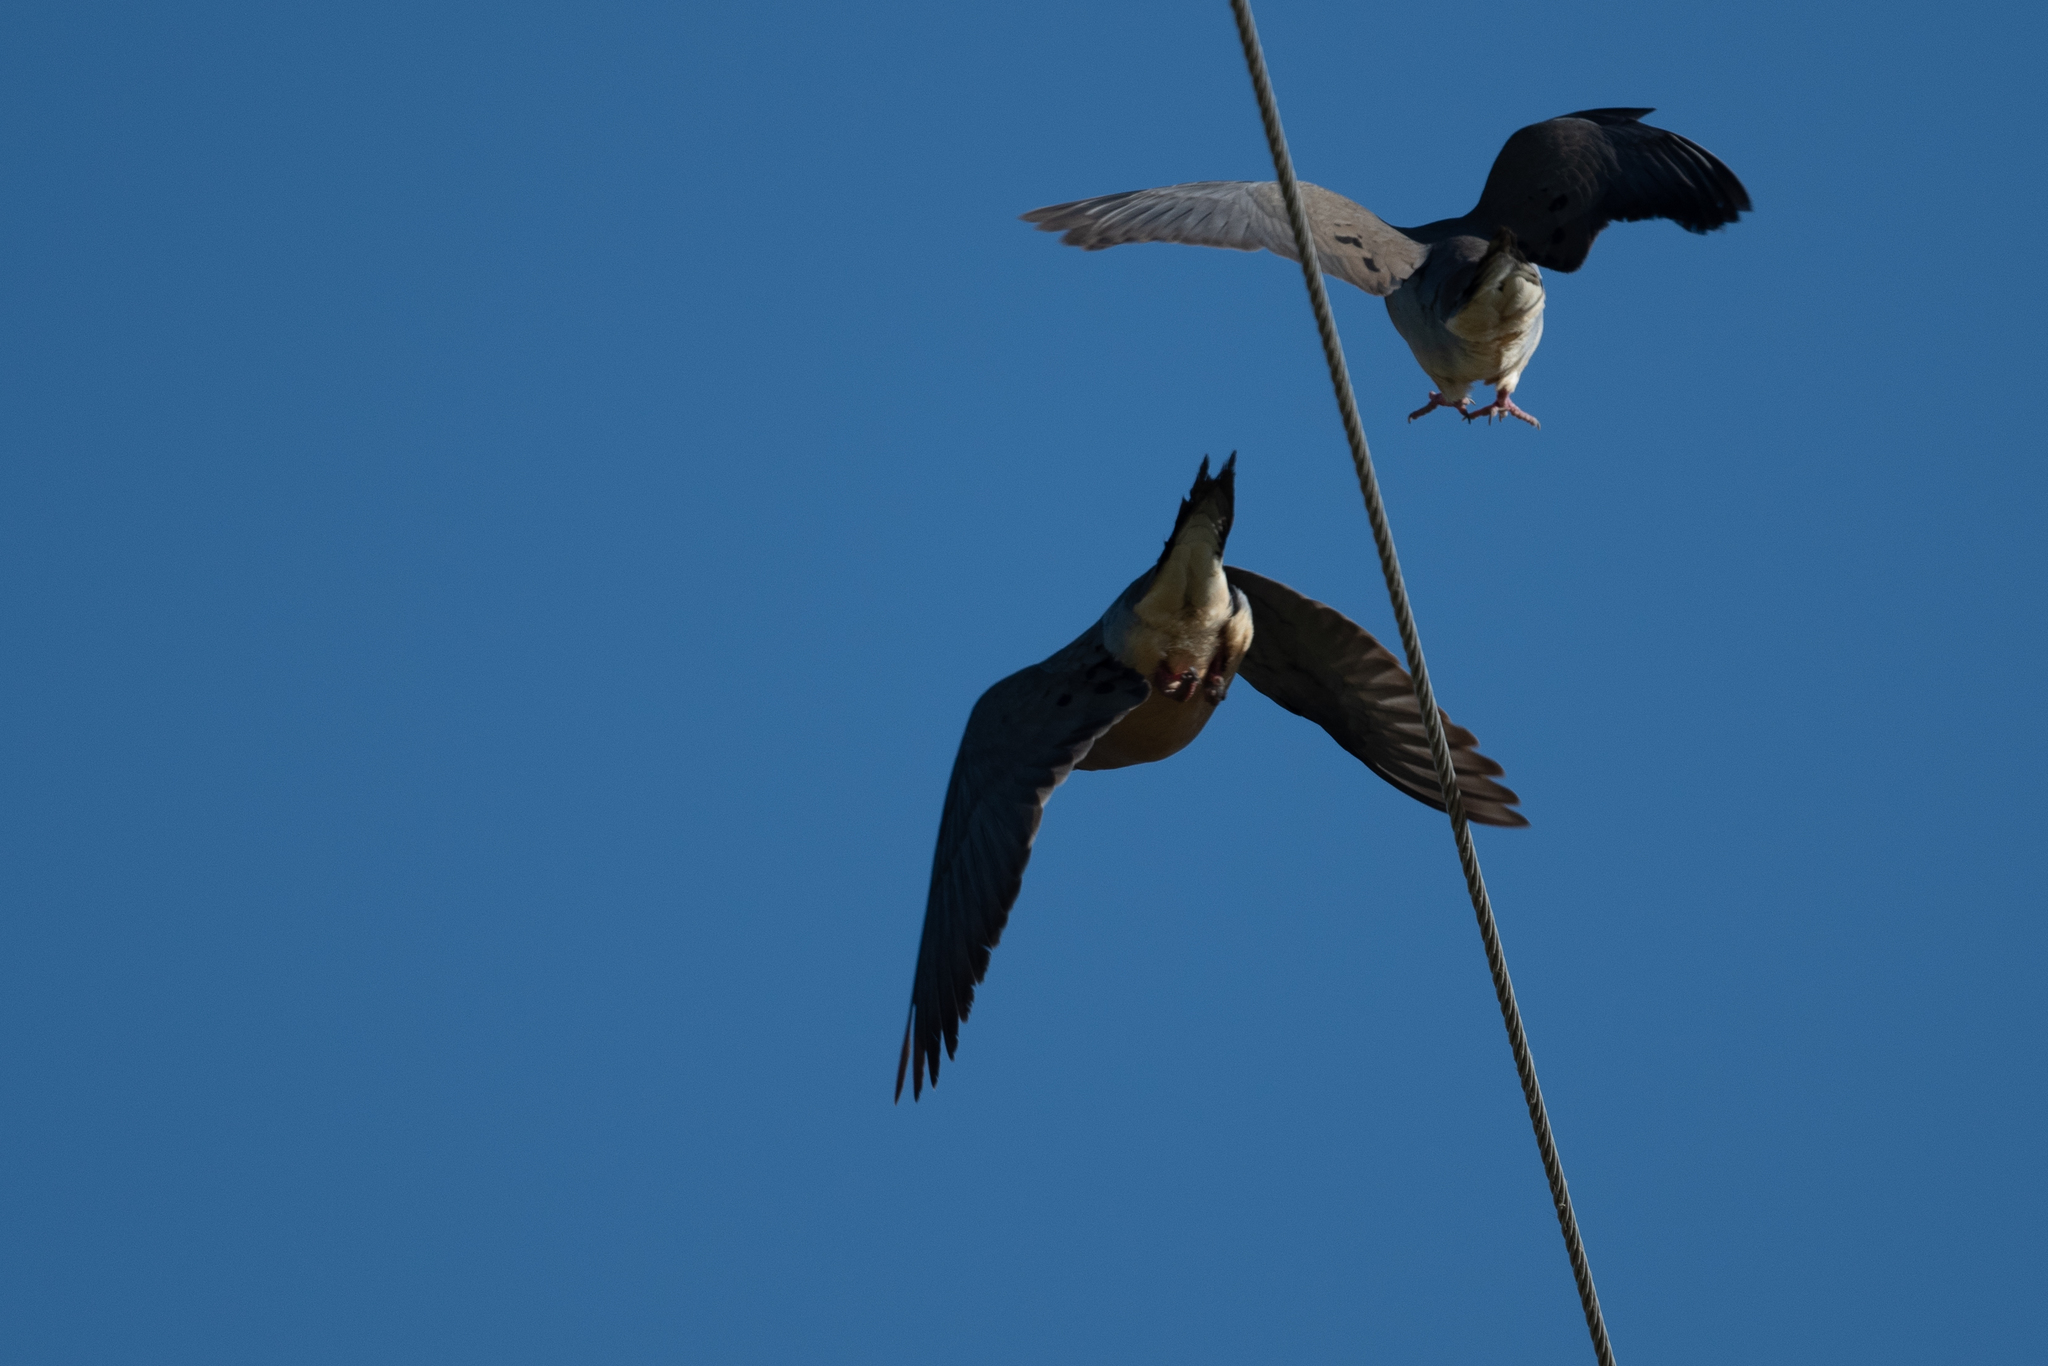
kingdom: Animalia
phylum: Chordata
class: Aves
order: Columbiformes
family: Columbidae
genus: Zenaida
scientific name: Zenaida macroura
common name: Mourning dove
